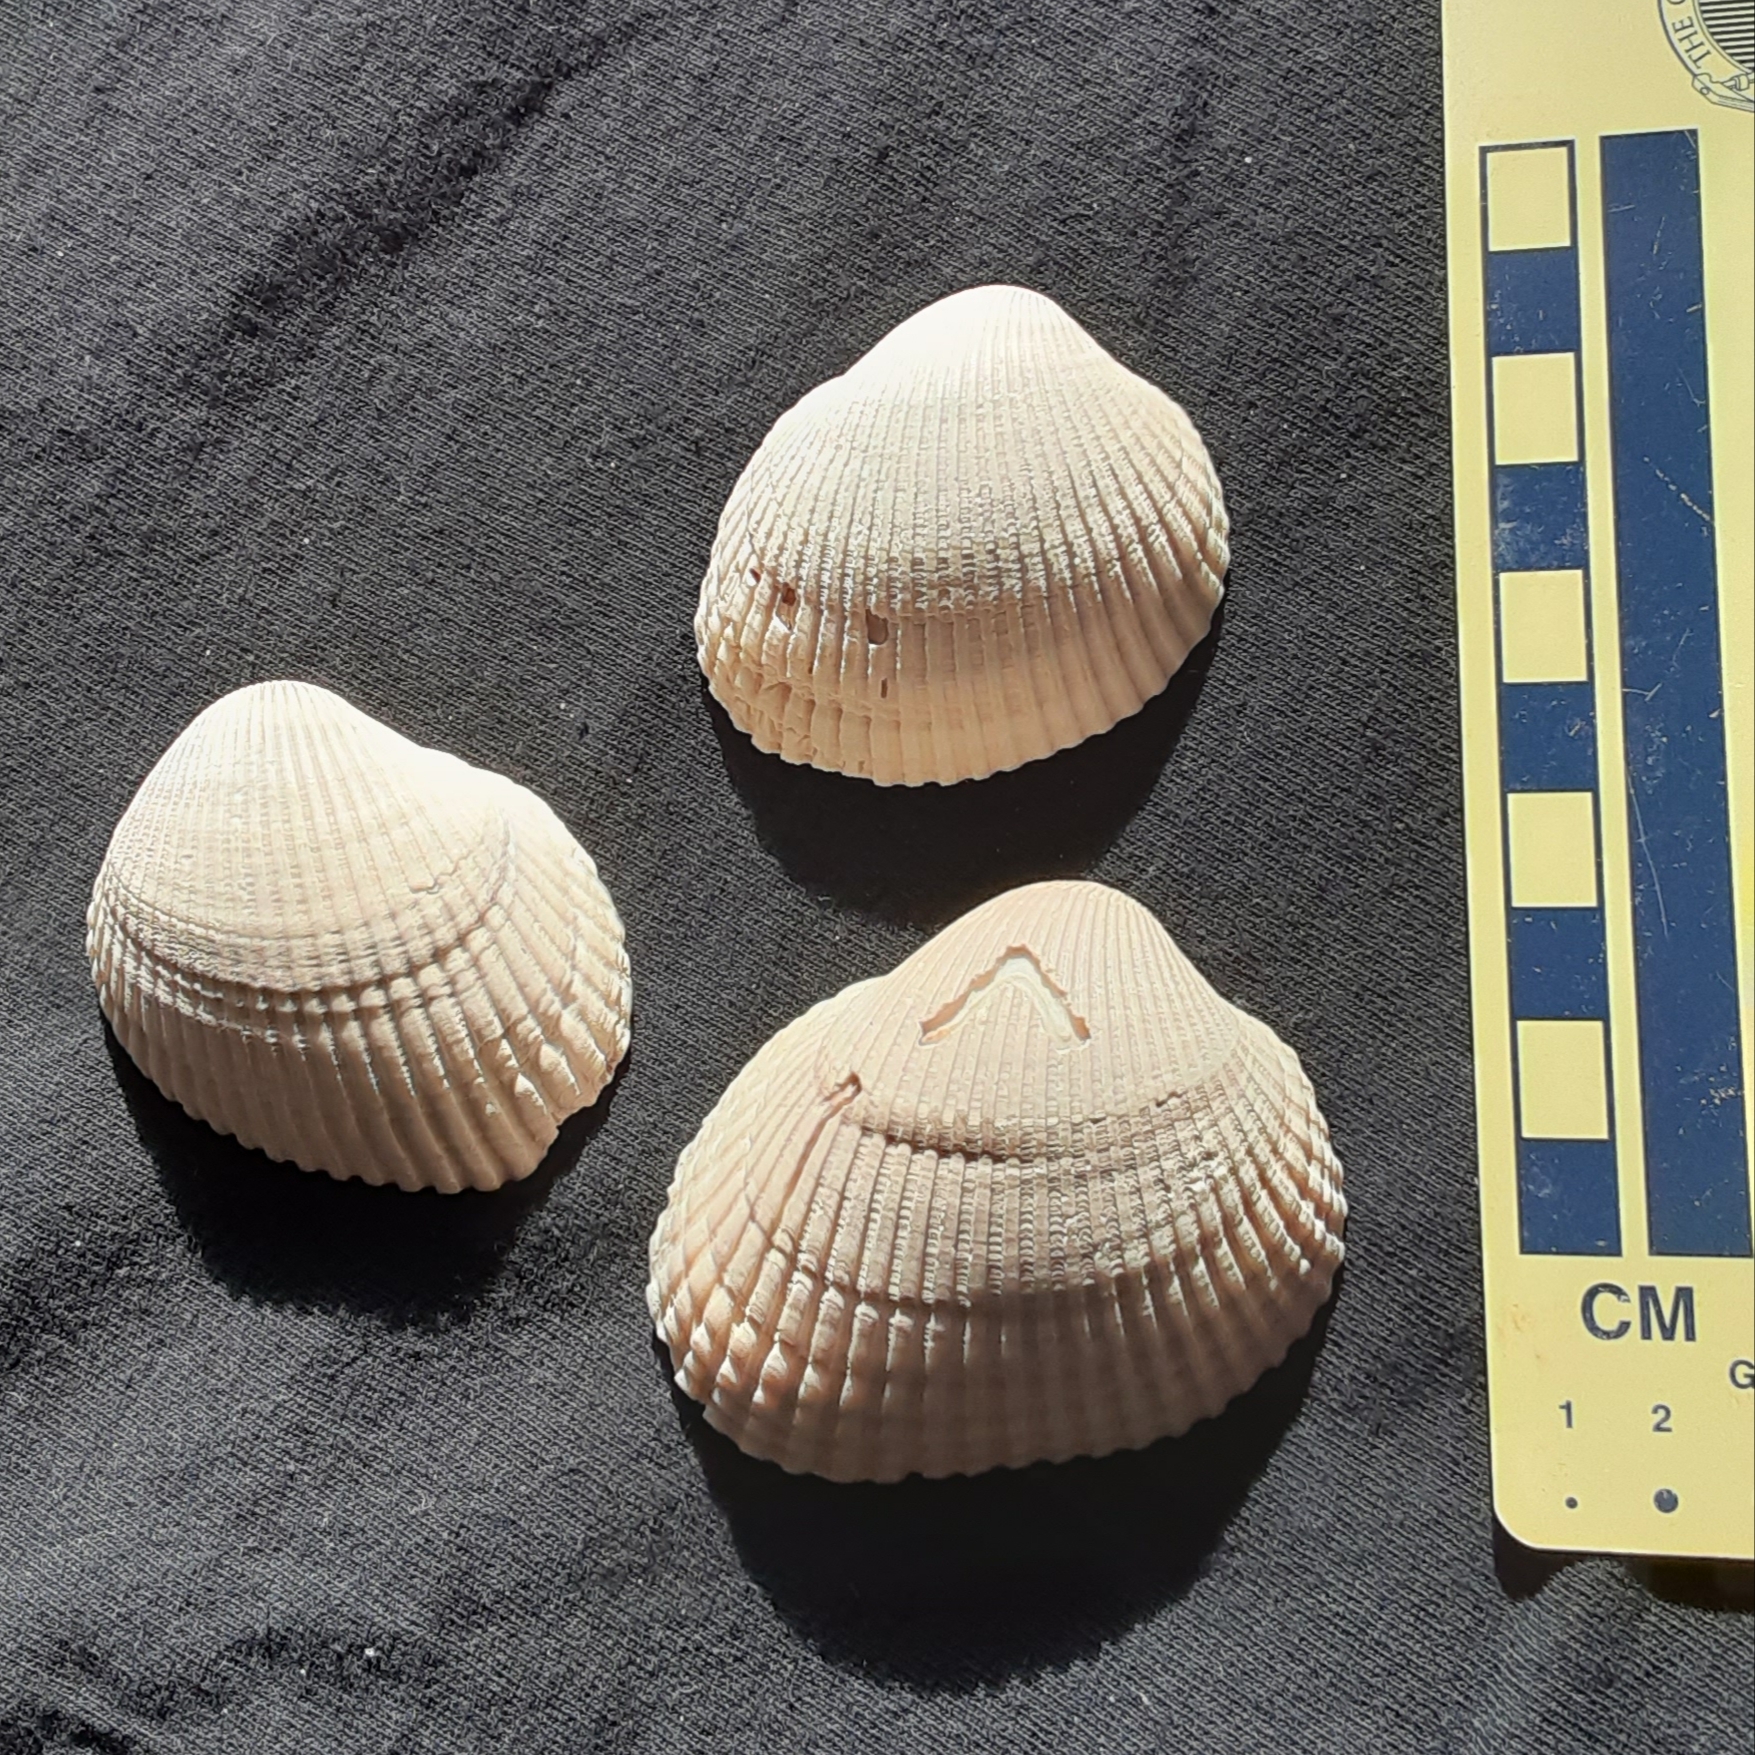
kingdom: Animalia
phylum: Mollusca
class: Bivalvia
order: Arcida
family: Arcidae
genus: Lunarca
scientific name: Lunarca ovalis
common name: Blood ark
